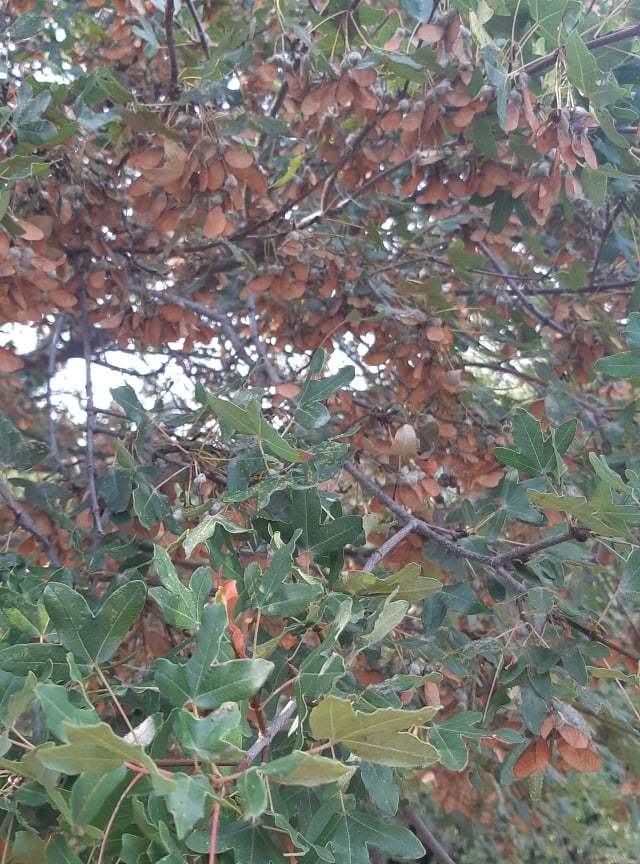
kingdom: Plantae
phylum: Tracheophyta
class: Magnoliopsida
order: Sapindales
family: Sapindaceae
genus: Acer
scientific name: Acer monspessulanum
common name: Montpellier maple
